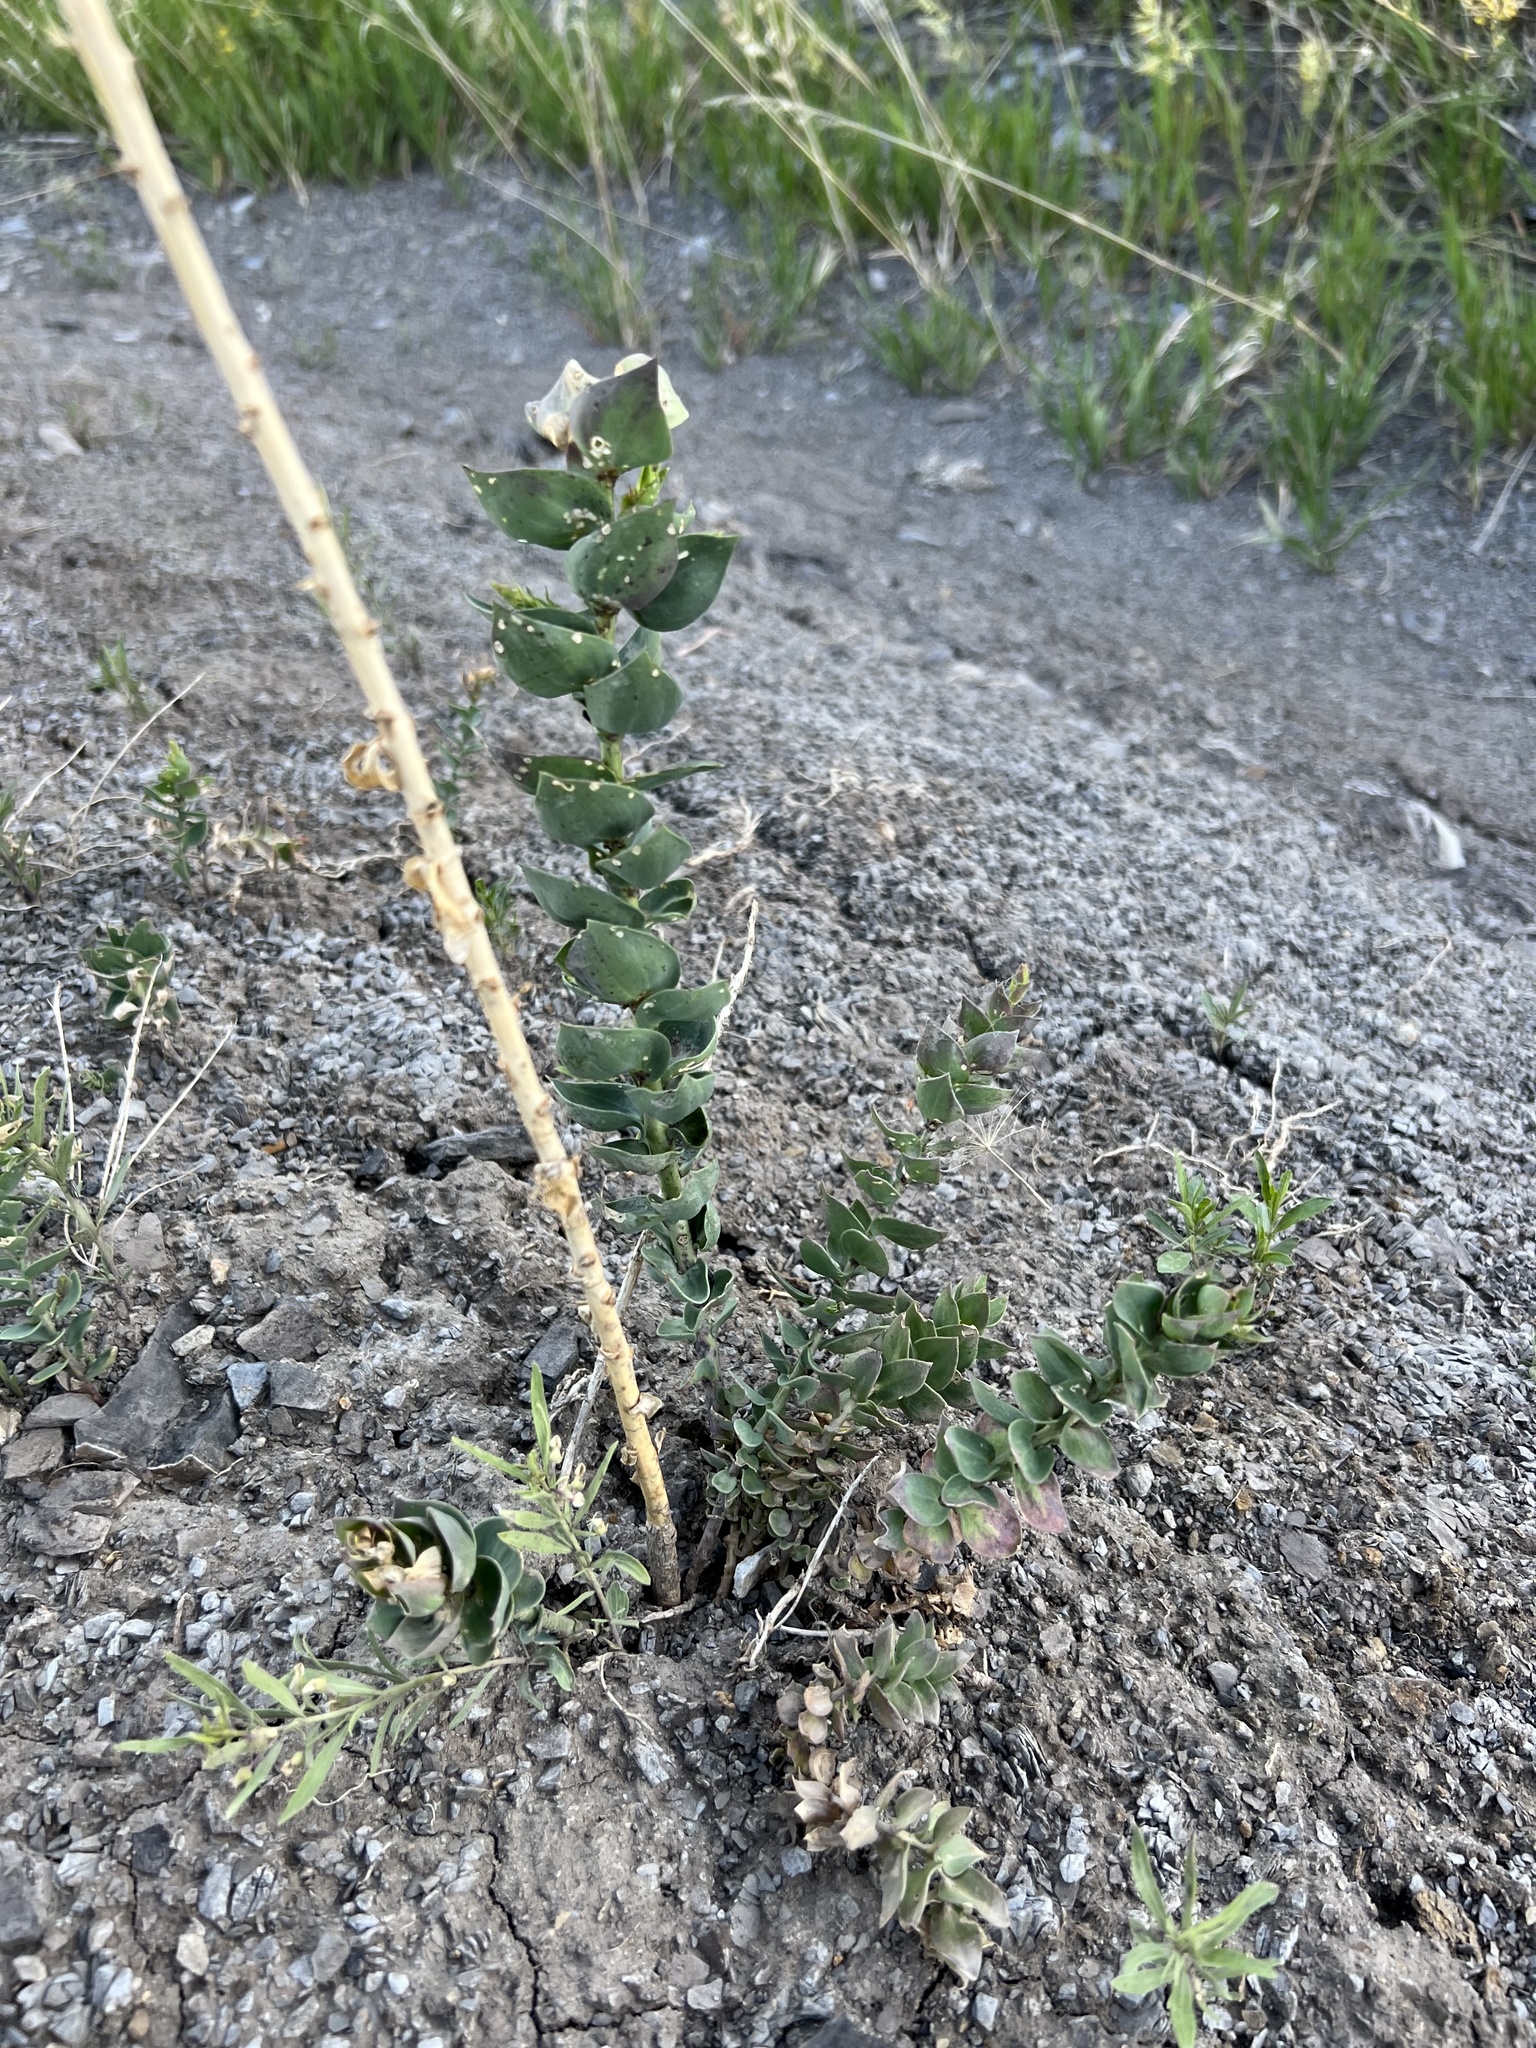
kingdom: Plantae
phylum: Tracheophyta
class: Magnoliopsida
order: Lamiales
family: Plantaginaceae
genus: Linaria
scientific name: Linaria dalmatica
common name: Dalmatian toadflax
